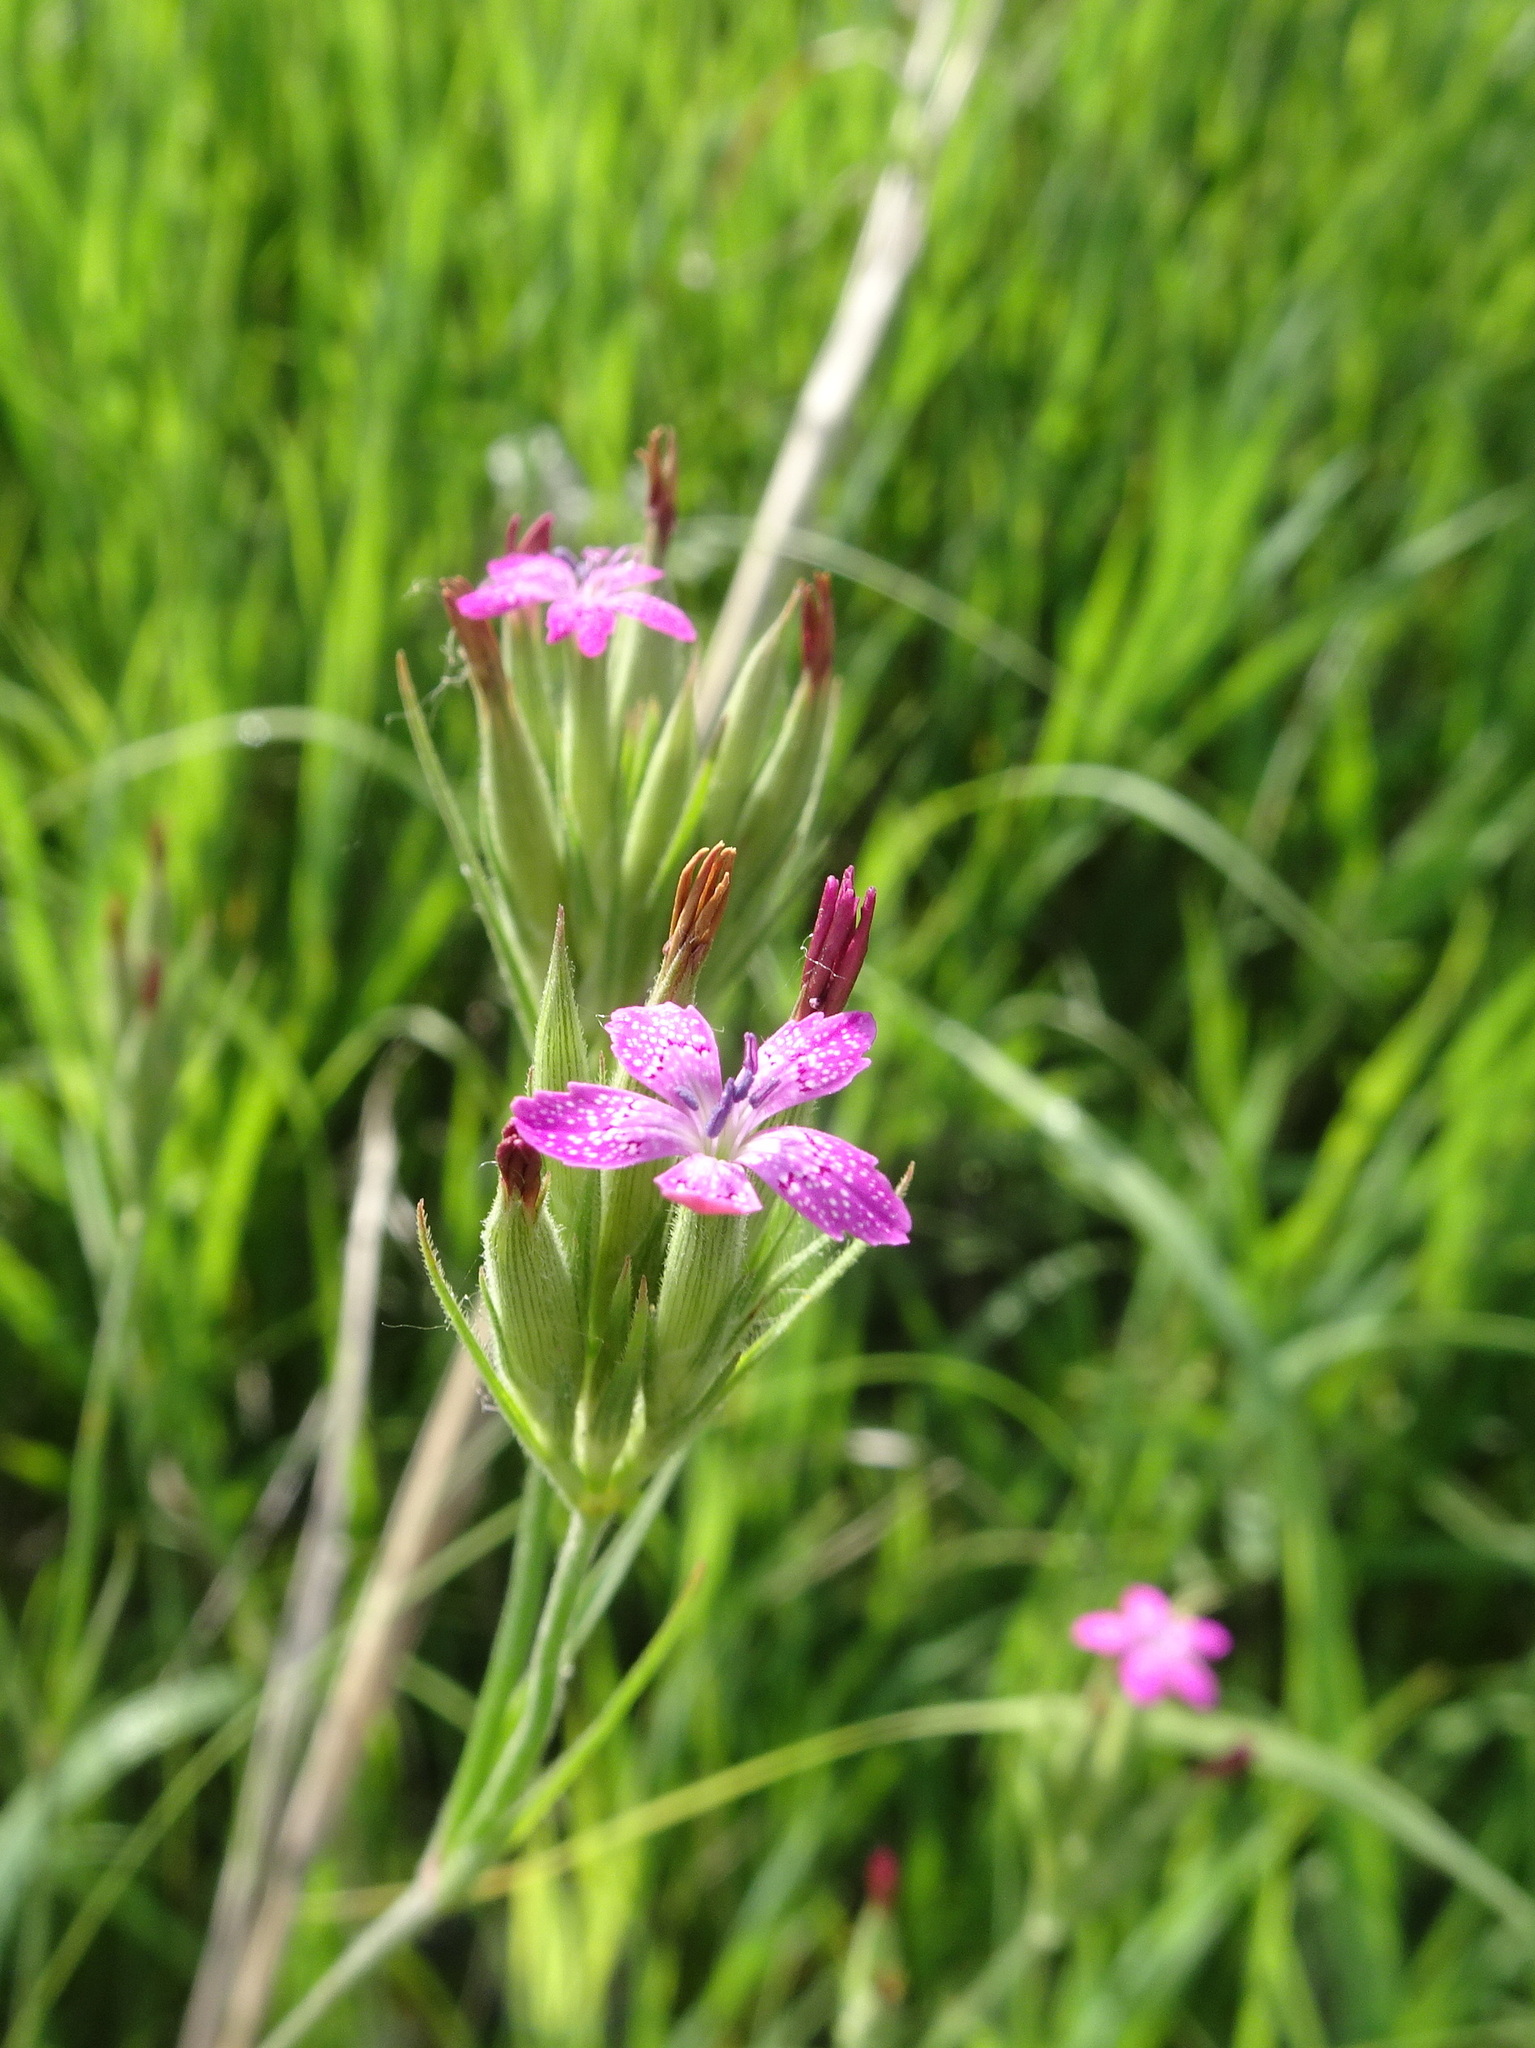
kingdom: Plantae
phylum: Tracheophyta
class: Magnoliopsida
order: Caryophyllales
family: Caryophyllaceae
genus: Dianthus
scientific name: Dianthus armeria
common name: Deptford pink
